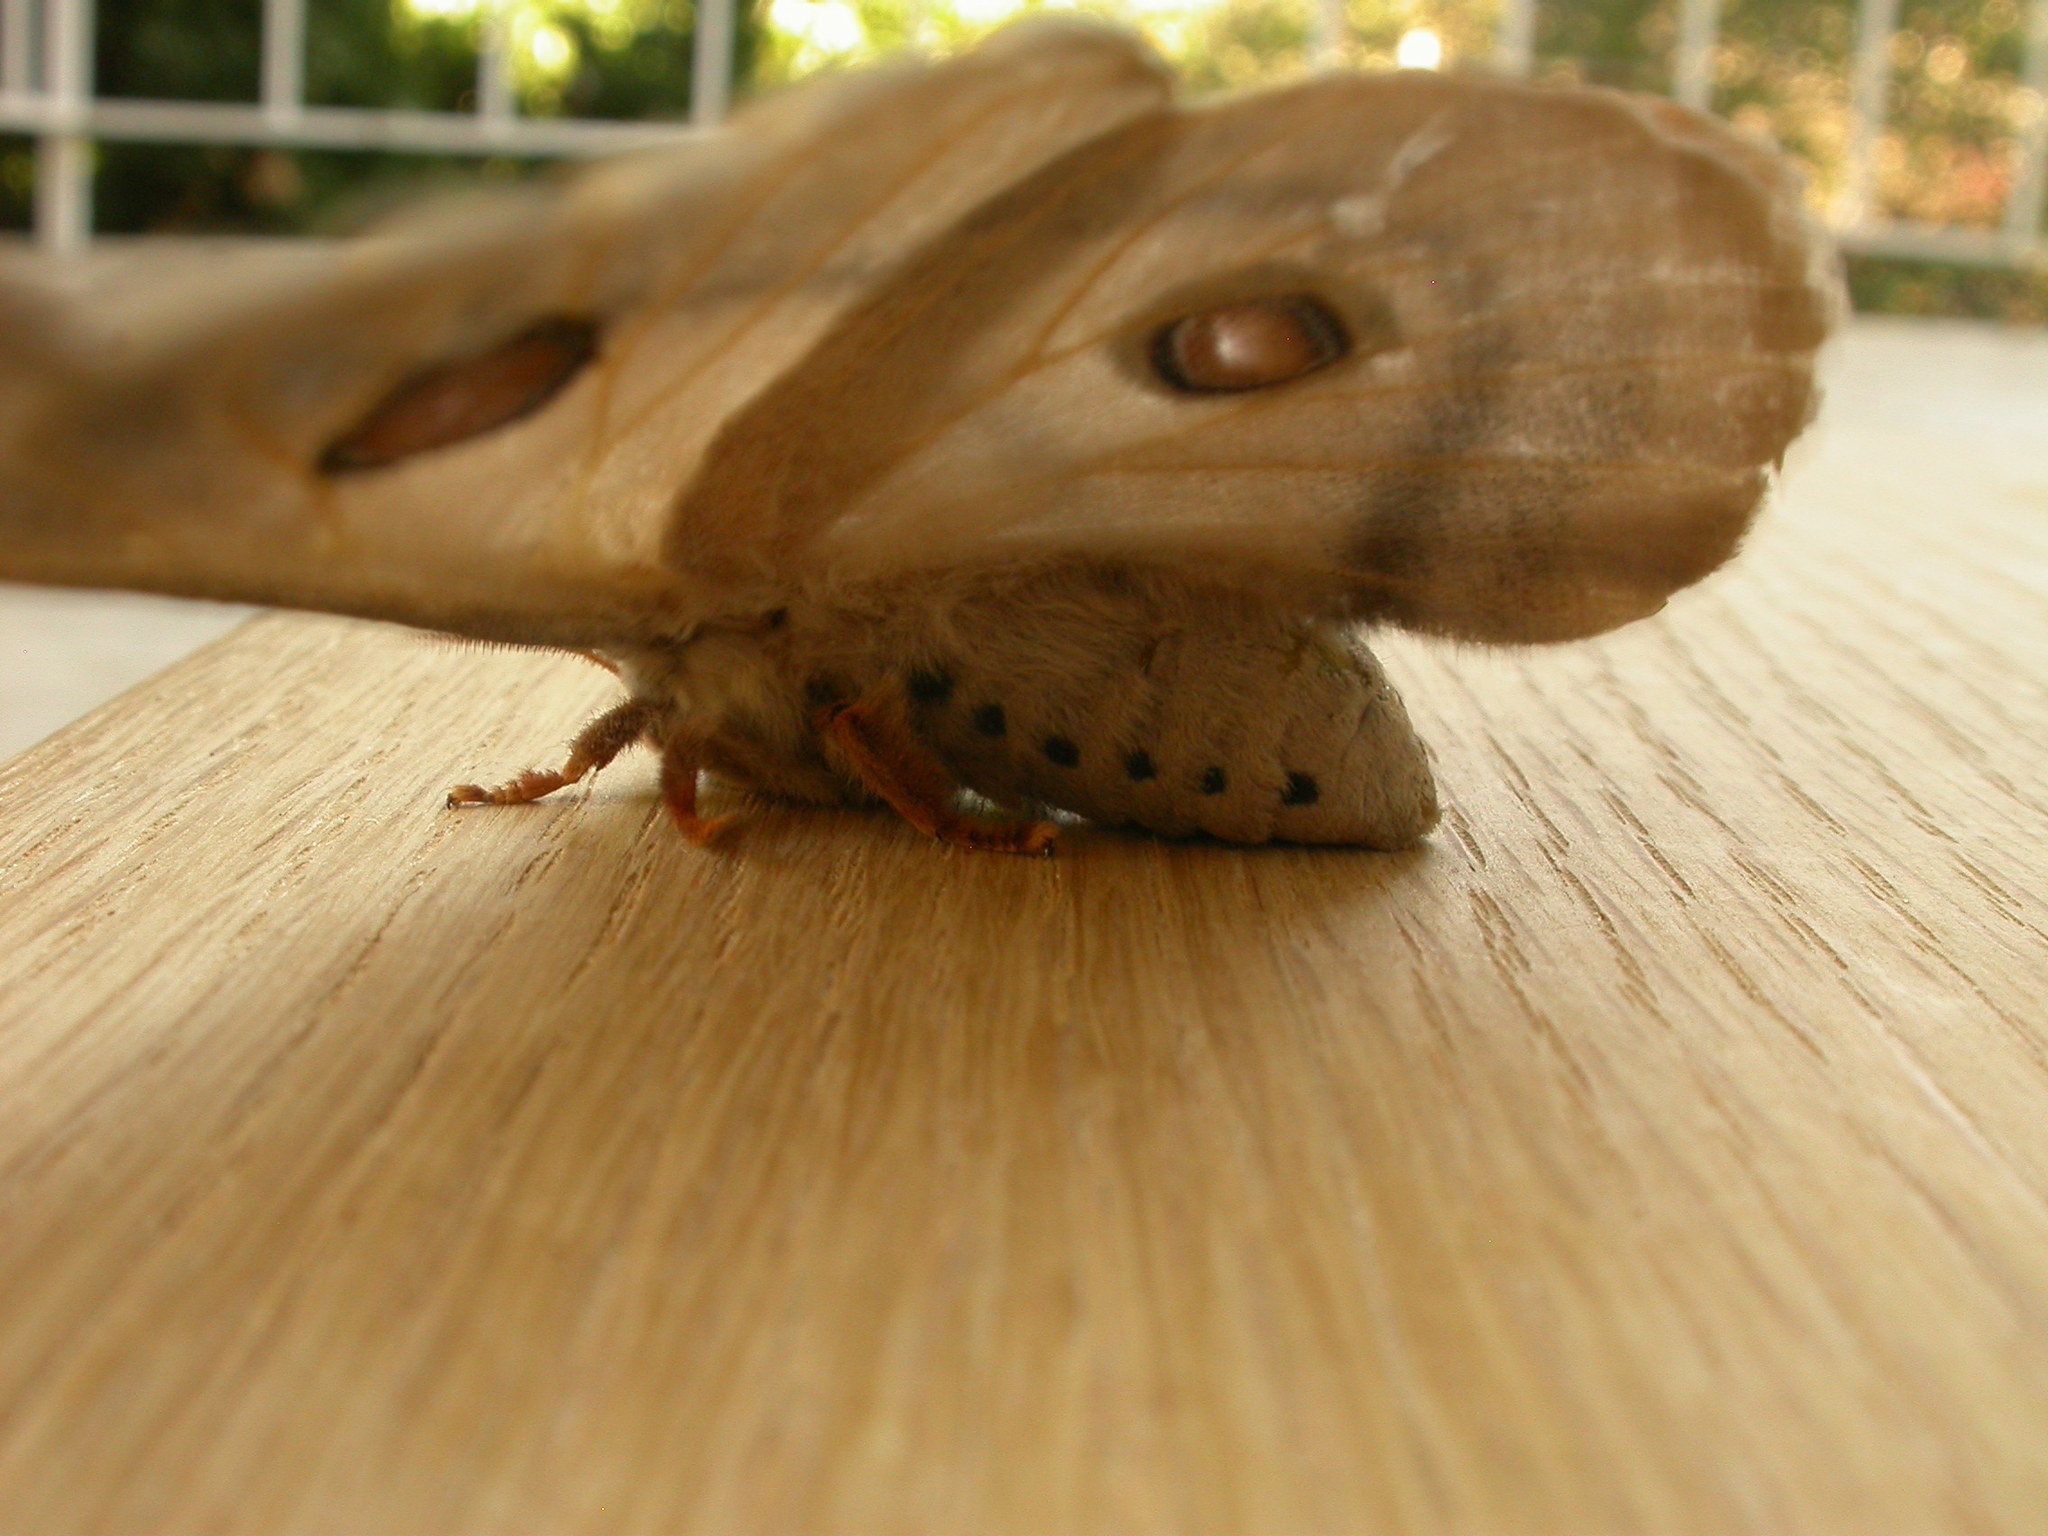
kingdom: Animalia
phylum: Arthropoda
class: Insecta
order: Lepidoptera
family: Saturniidae
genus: Opodiphthera
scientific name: Opodiphthera
